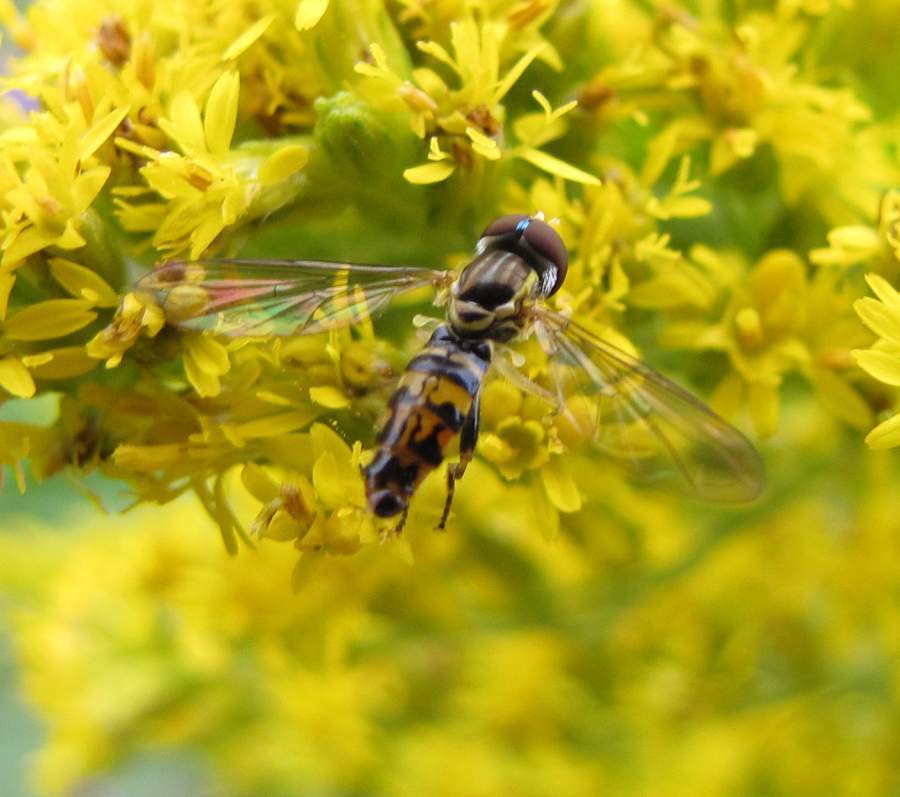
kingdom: Animalia
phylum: Arthropoda
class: Insecta
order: Diptera
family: Syrphidae
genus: Toxomerus
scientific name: Toxomerus geminatus
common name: Eastern calligrapher
